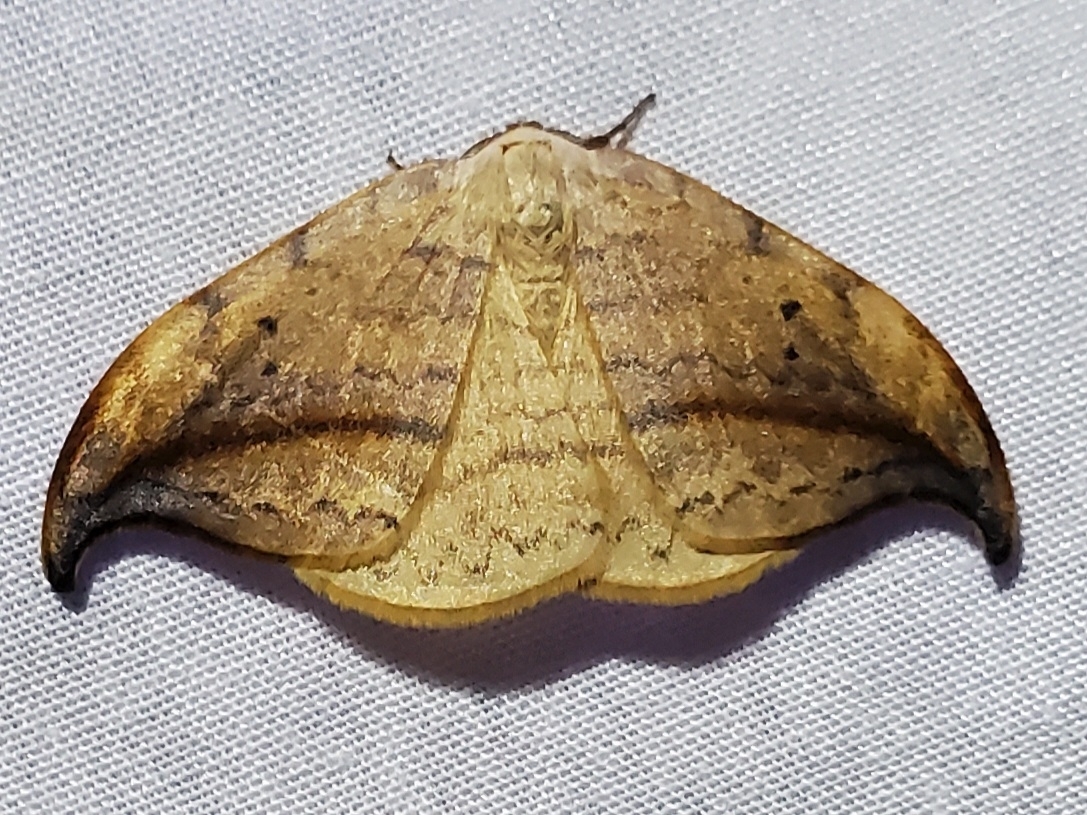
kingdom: Animalia
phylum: Arthropoda
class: Insecta
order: Lepidoptera
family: Drepanidae
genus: Drepana
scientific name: Drepana arcuata
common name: Arched hooktip moth
